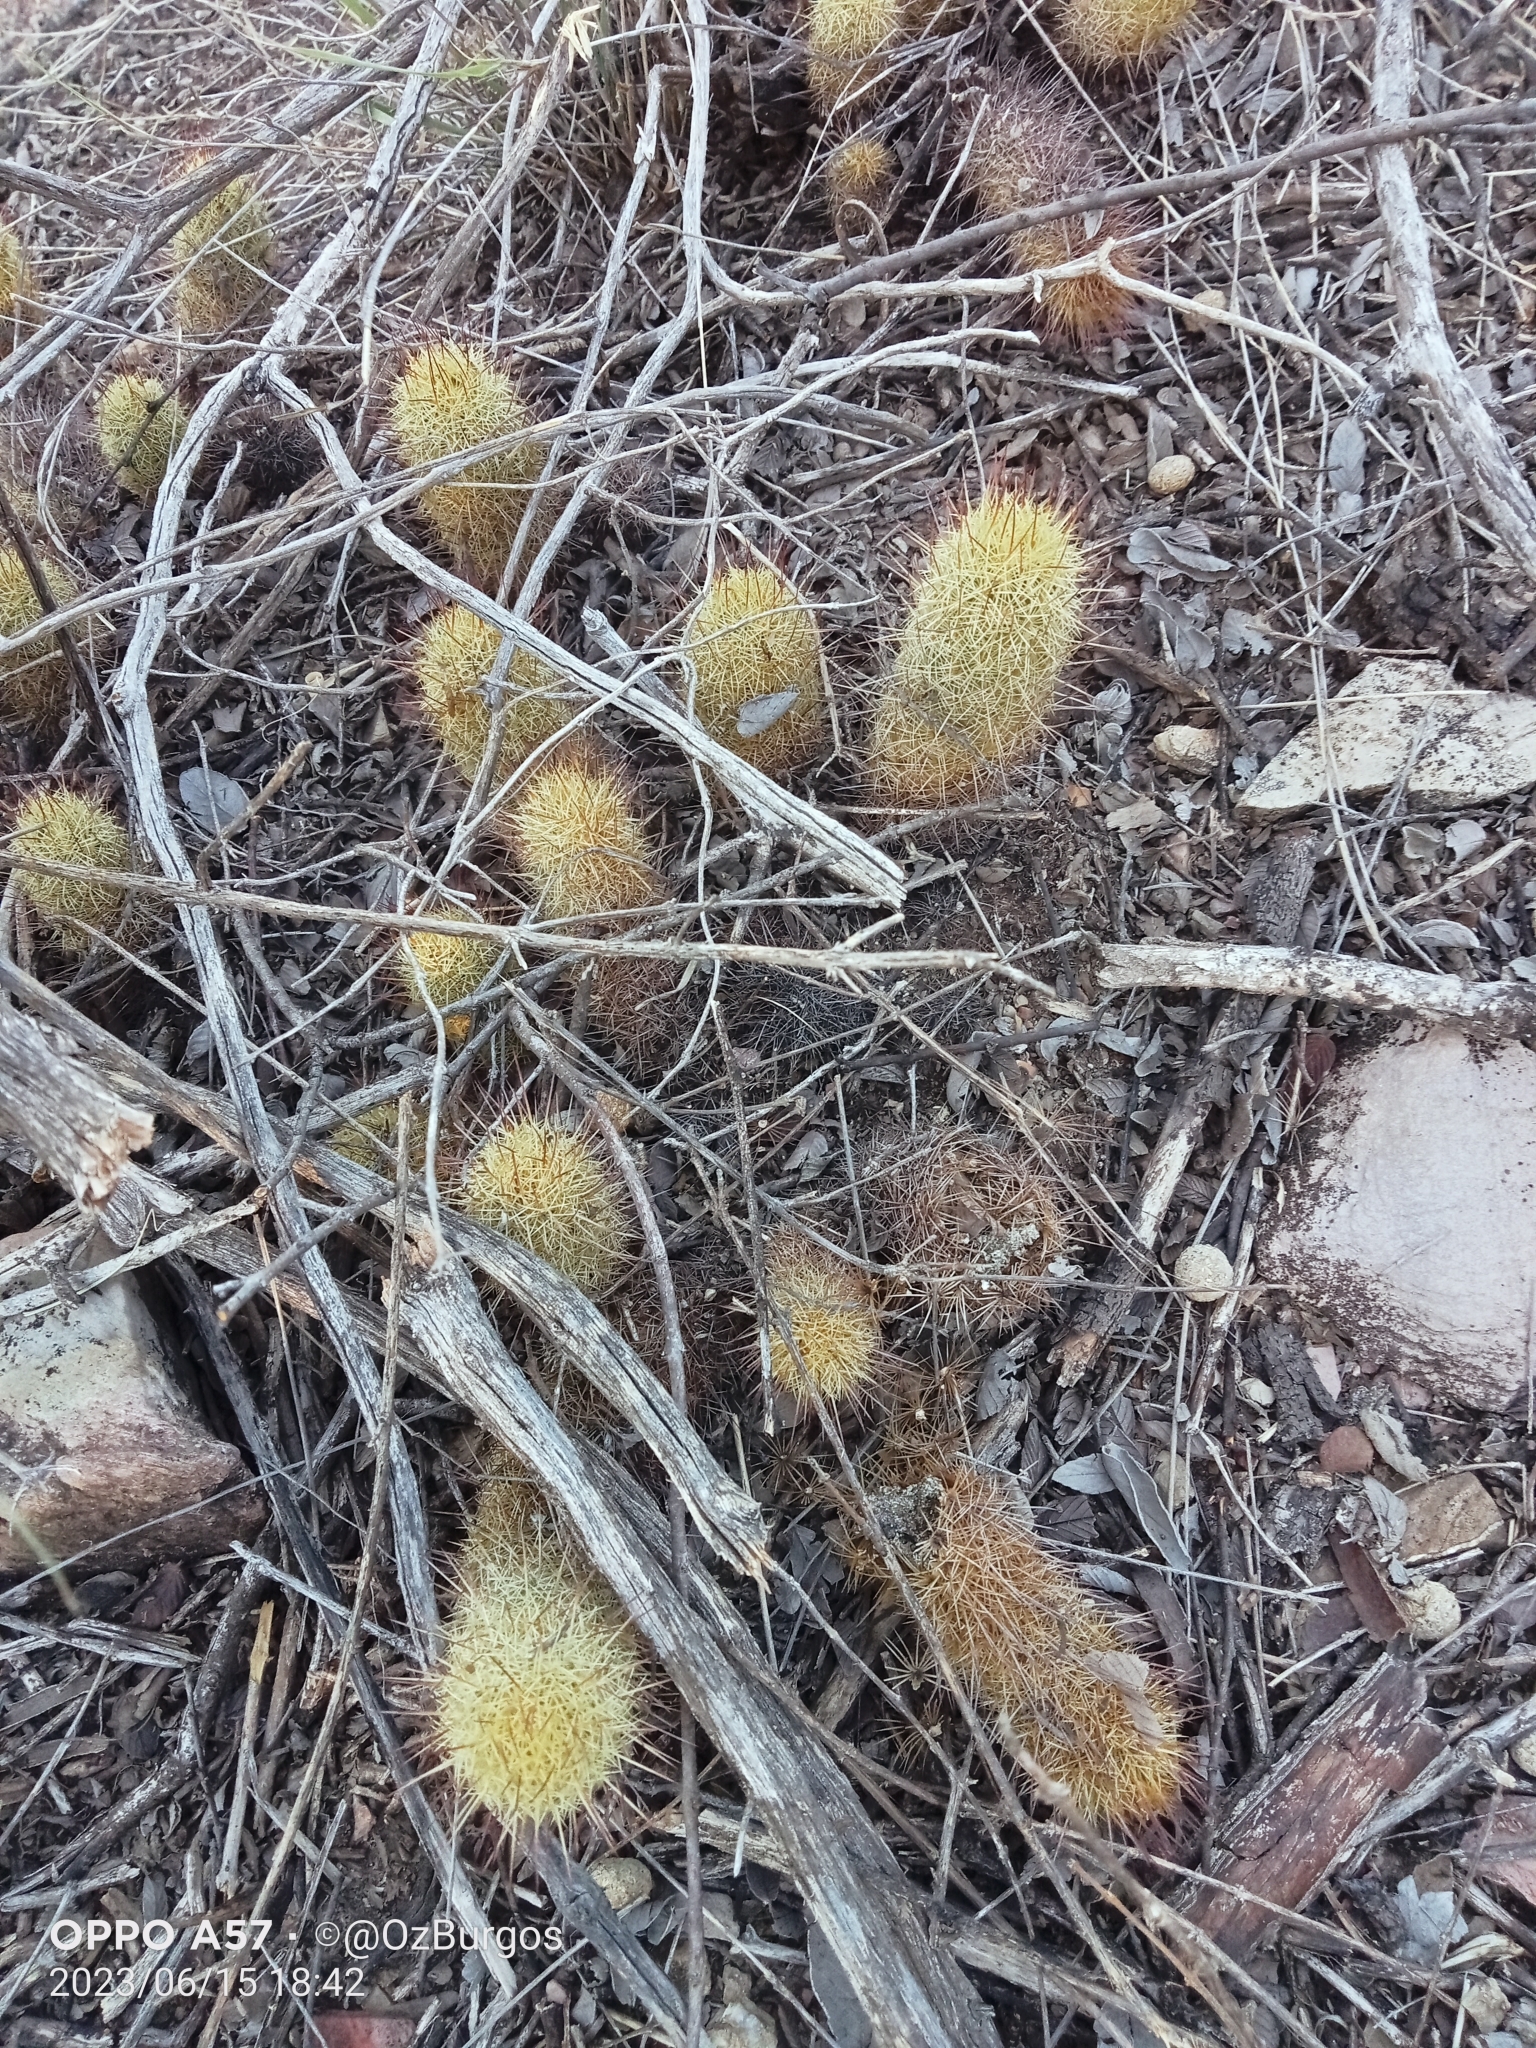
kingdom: Plantae
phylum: Tracheophyta
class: Magnoliopsida
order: Caryophyllales
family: Cactaceae
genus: Mammillaria
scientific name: Mammillaria elongata
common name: Golden star cactus
